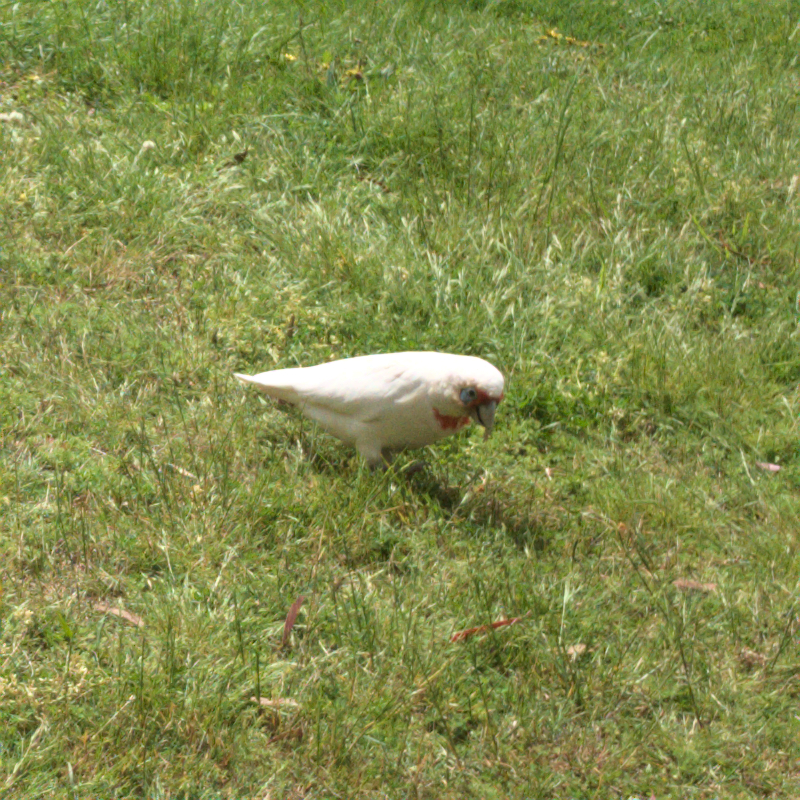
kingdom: Animalia
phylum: Chordata
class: Aves
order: Psittaciformes
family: Psittacidae
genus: Cacatua
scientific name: Cacatua tenuirostris
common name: Long-billed corella
